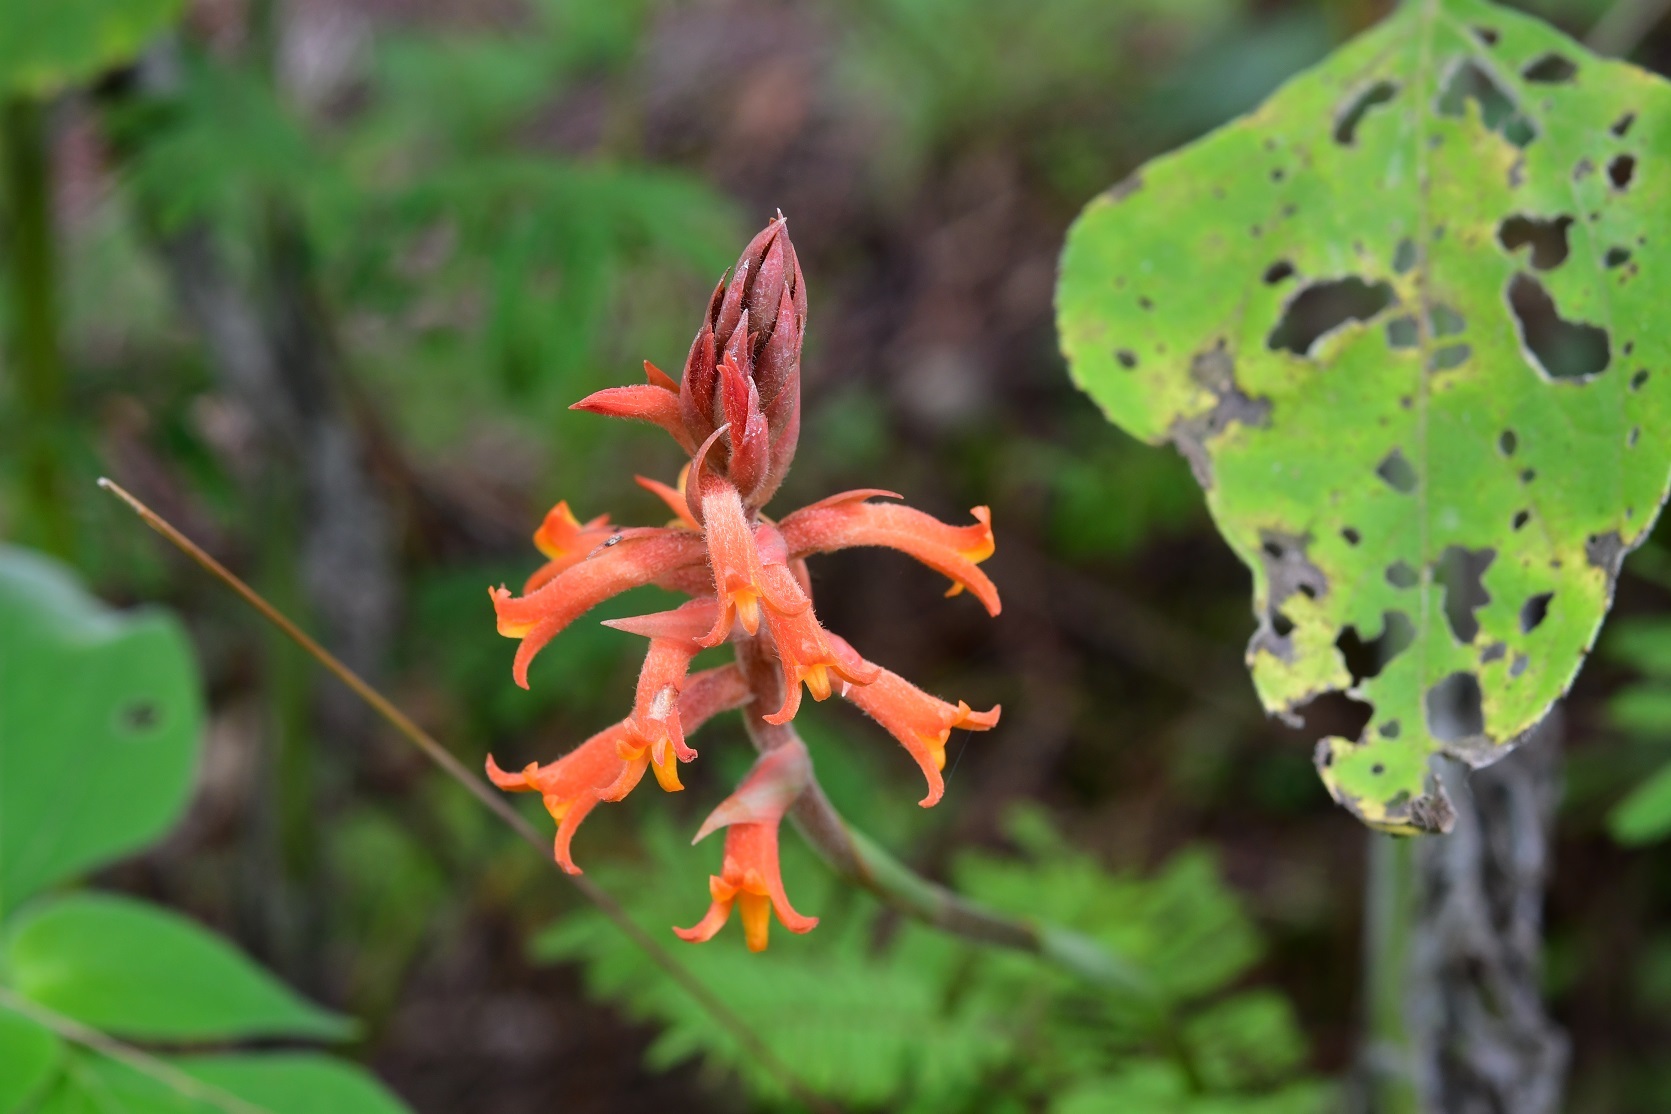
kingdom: Plantae
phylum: Tracheophyta
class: Liliopsida
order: Asparagales
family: Orchidaceae
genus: Dichromanthus
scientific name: Dichromanthus cinnabarinus
